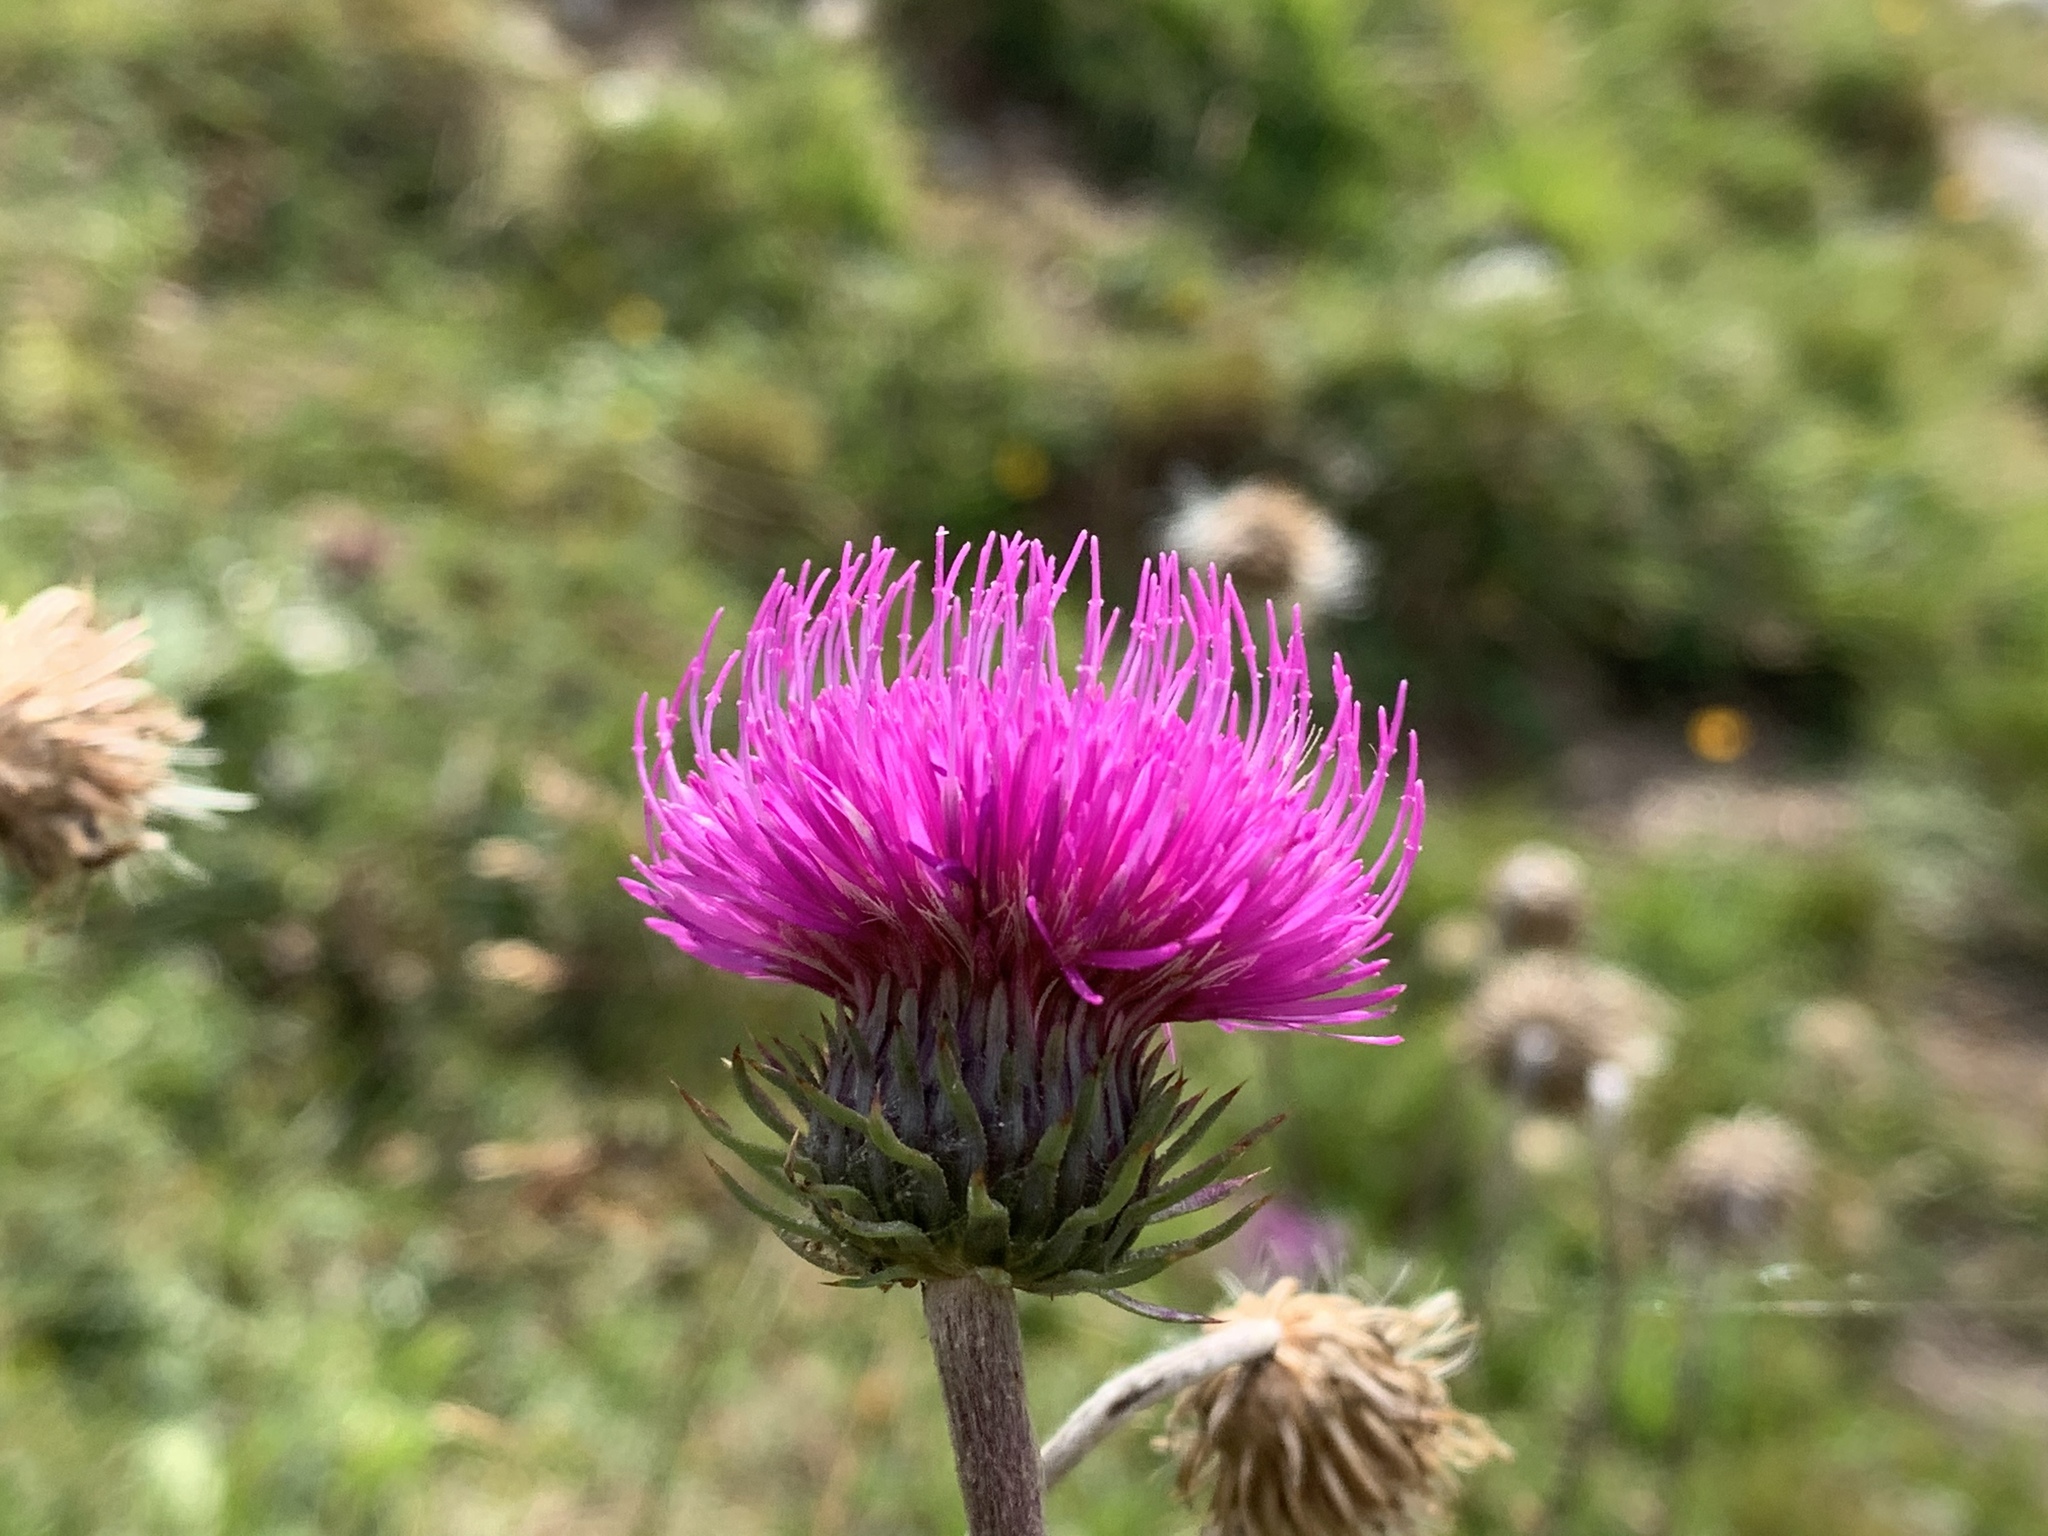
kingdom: Plantae
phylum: Tracheophyta
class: Magnoliopsida
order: Asterales
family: Asteraceae
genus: Carduus
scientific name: Carduus defloratus
